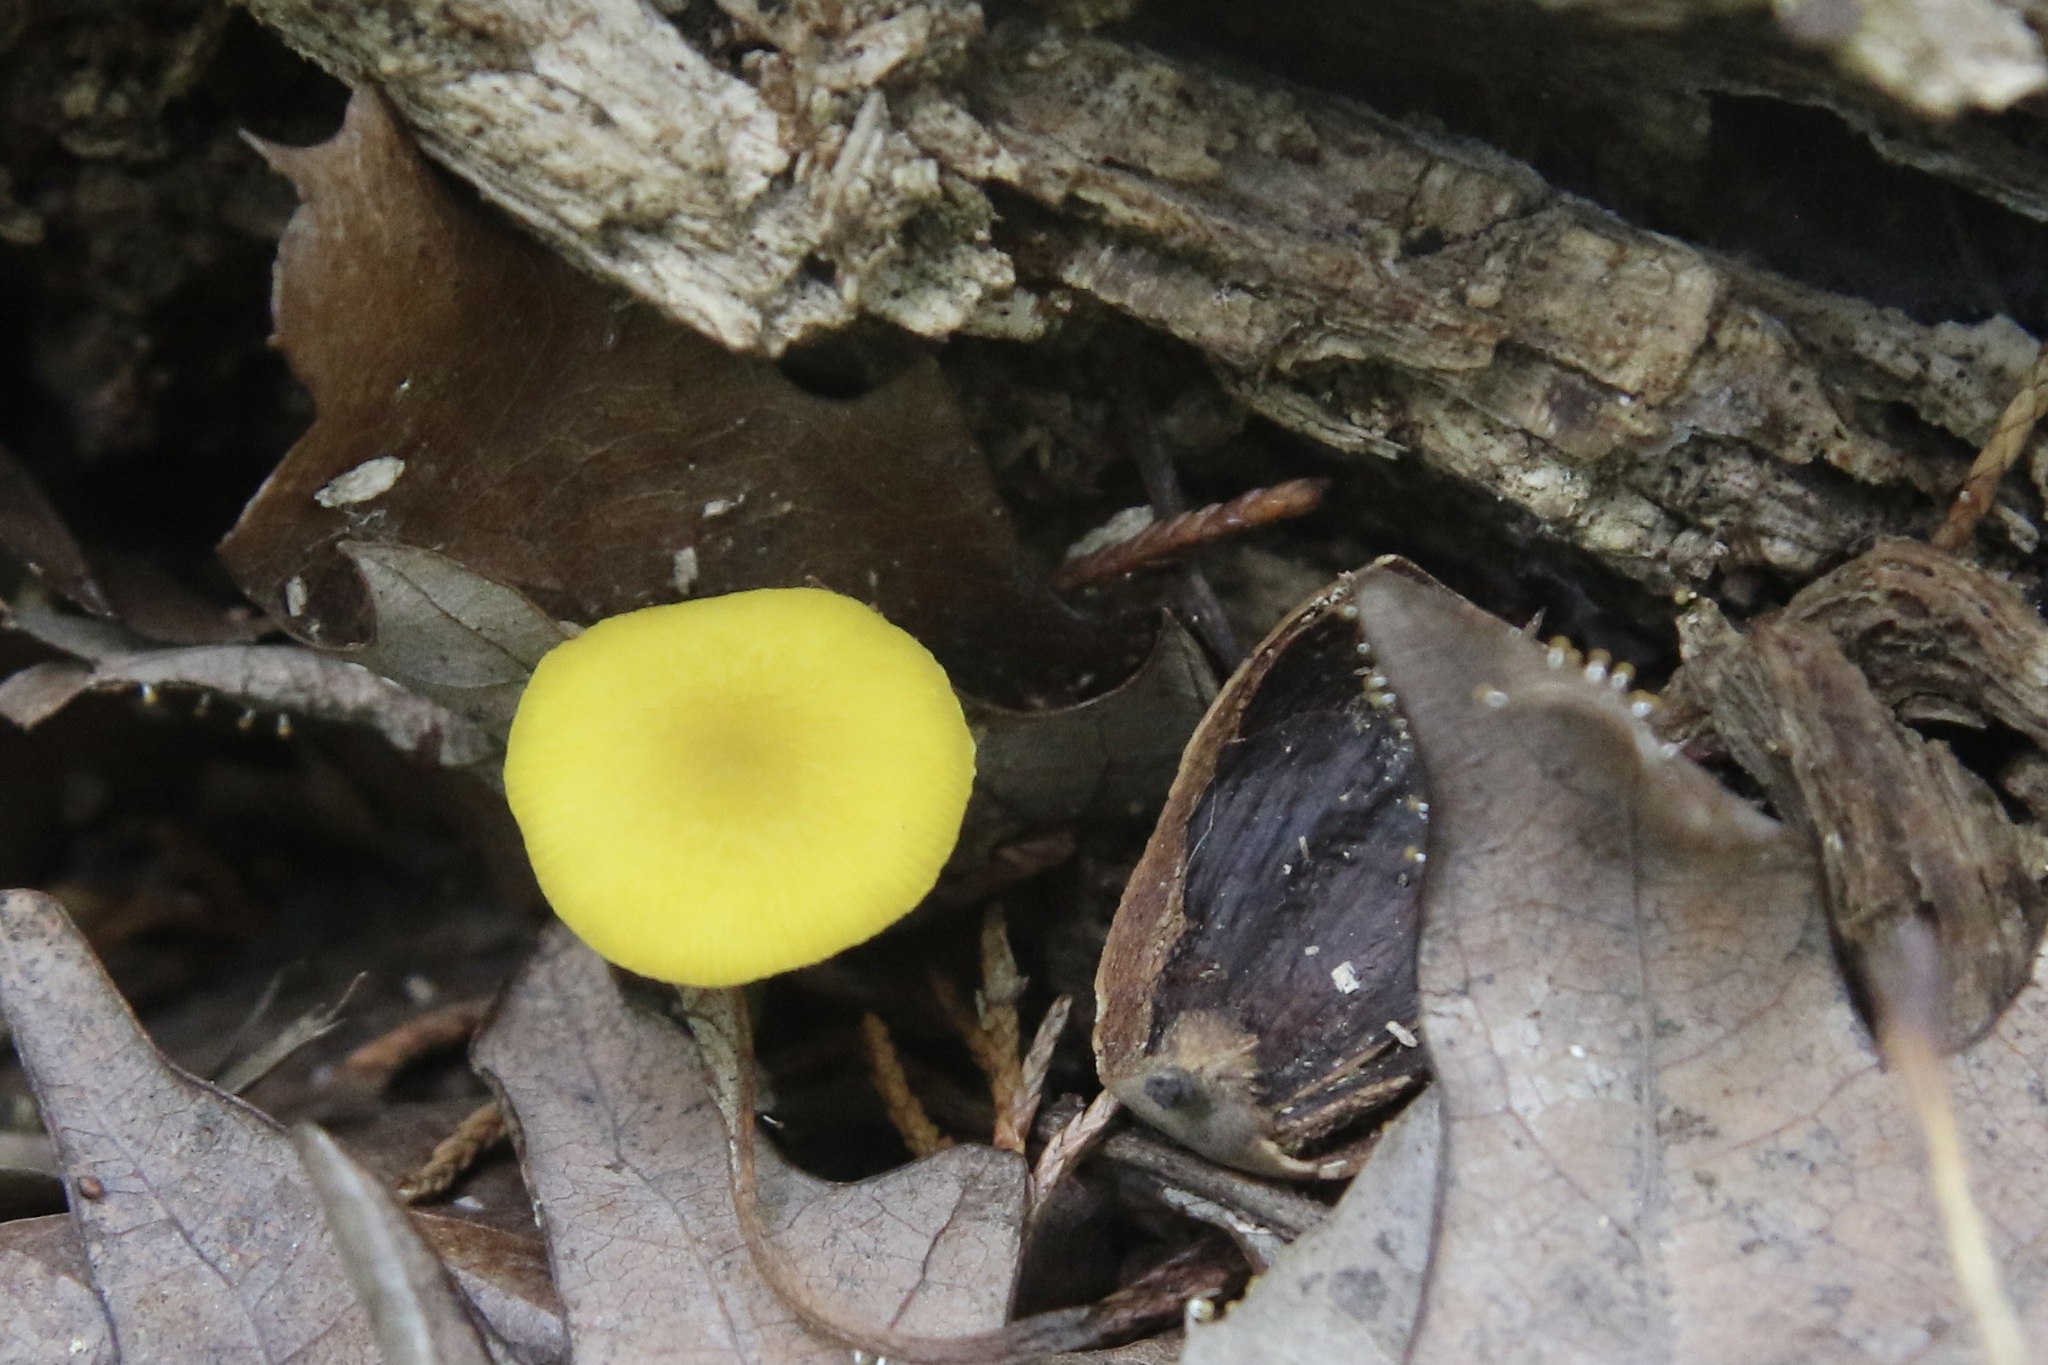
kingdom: Fungi
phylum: Basidiomycota
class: Agaricomycetes
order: Agaricales
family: Pluteaceae
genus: Pluteus
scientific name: Pluteus chrysophlebius
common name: Yellow deer mushroom
